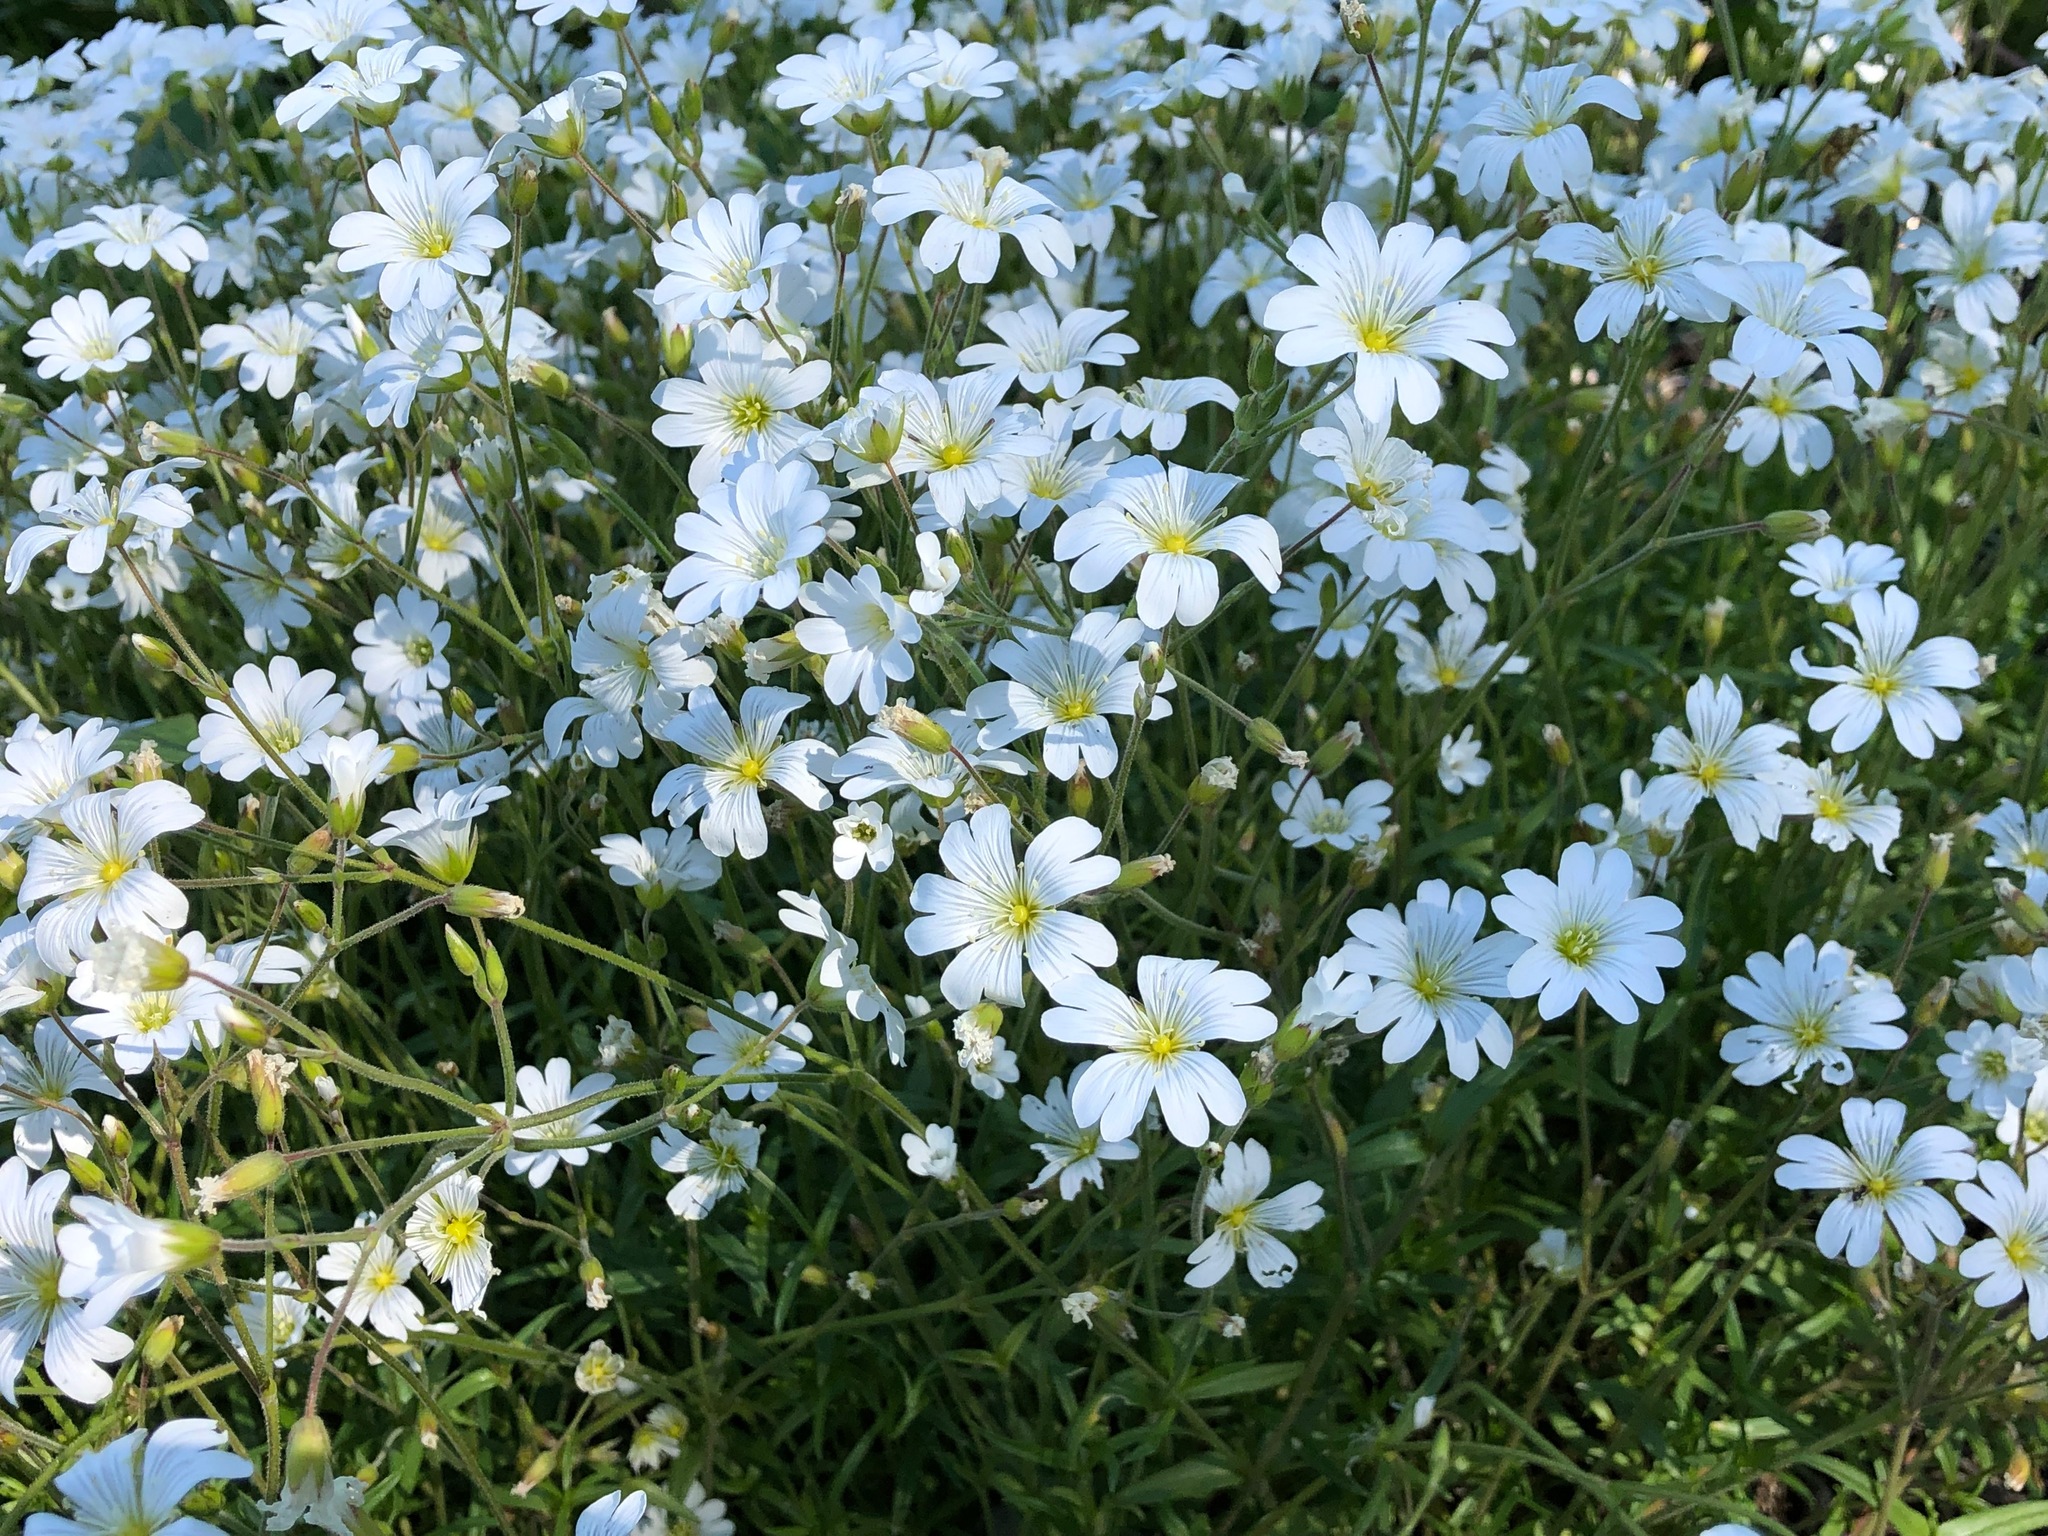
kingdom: Plantae
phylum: Tracheophyta
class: Magnoliopsida
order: Caryophyllales
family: Caryophyllaceae
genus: Cerastium
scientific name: Cerastium arvense
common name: Field mouse-ear
